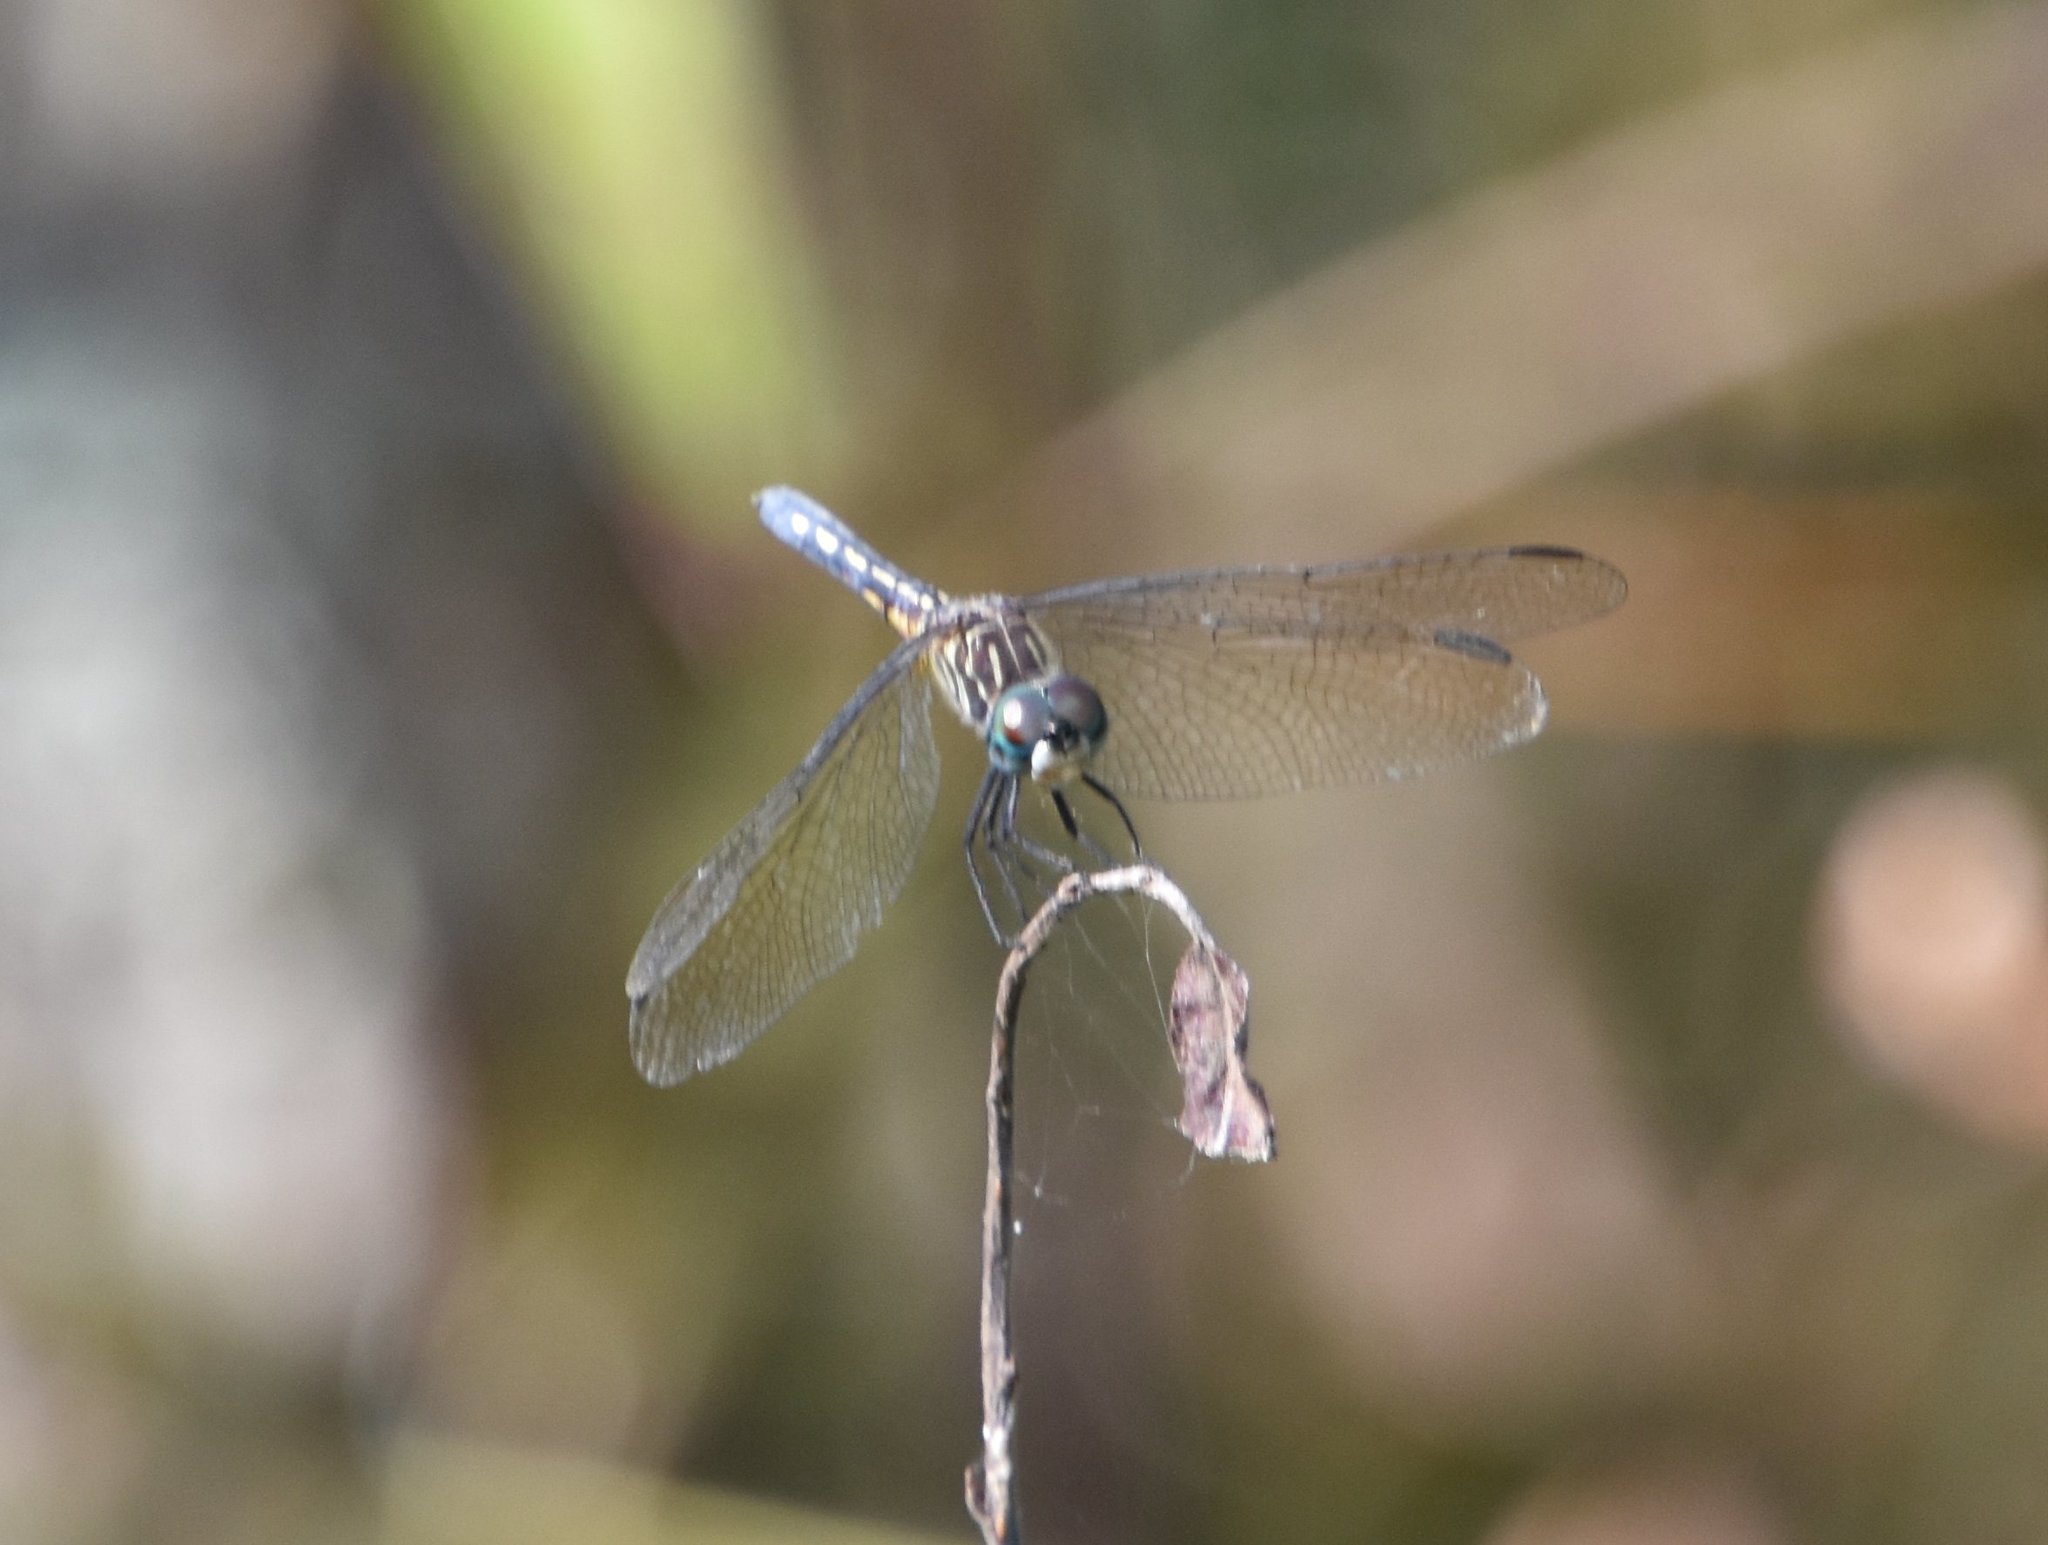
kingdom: Animalia
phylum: Arthropoda
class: Insecta
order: Odonata
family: Libellulidae
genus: Pachydiplax
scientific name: Pachydiplax longipennis
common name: Blue dasher
